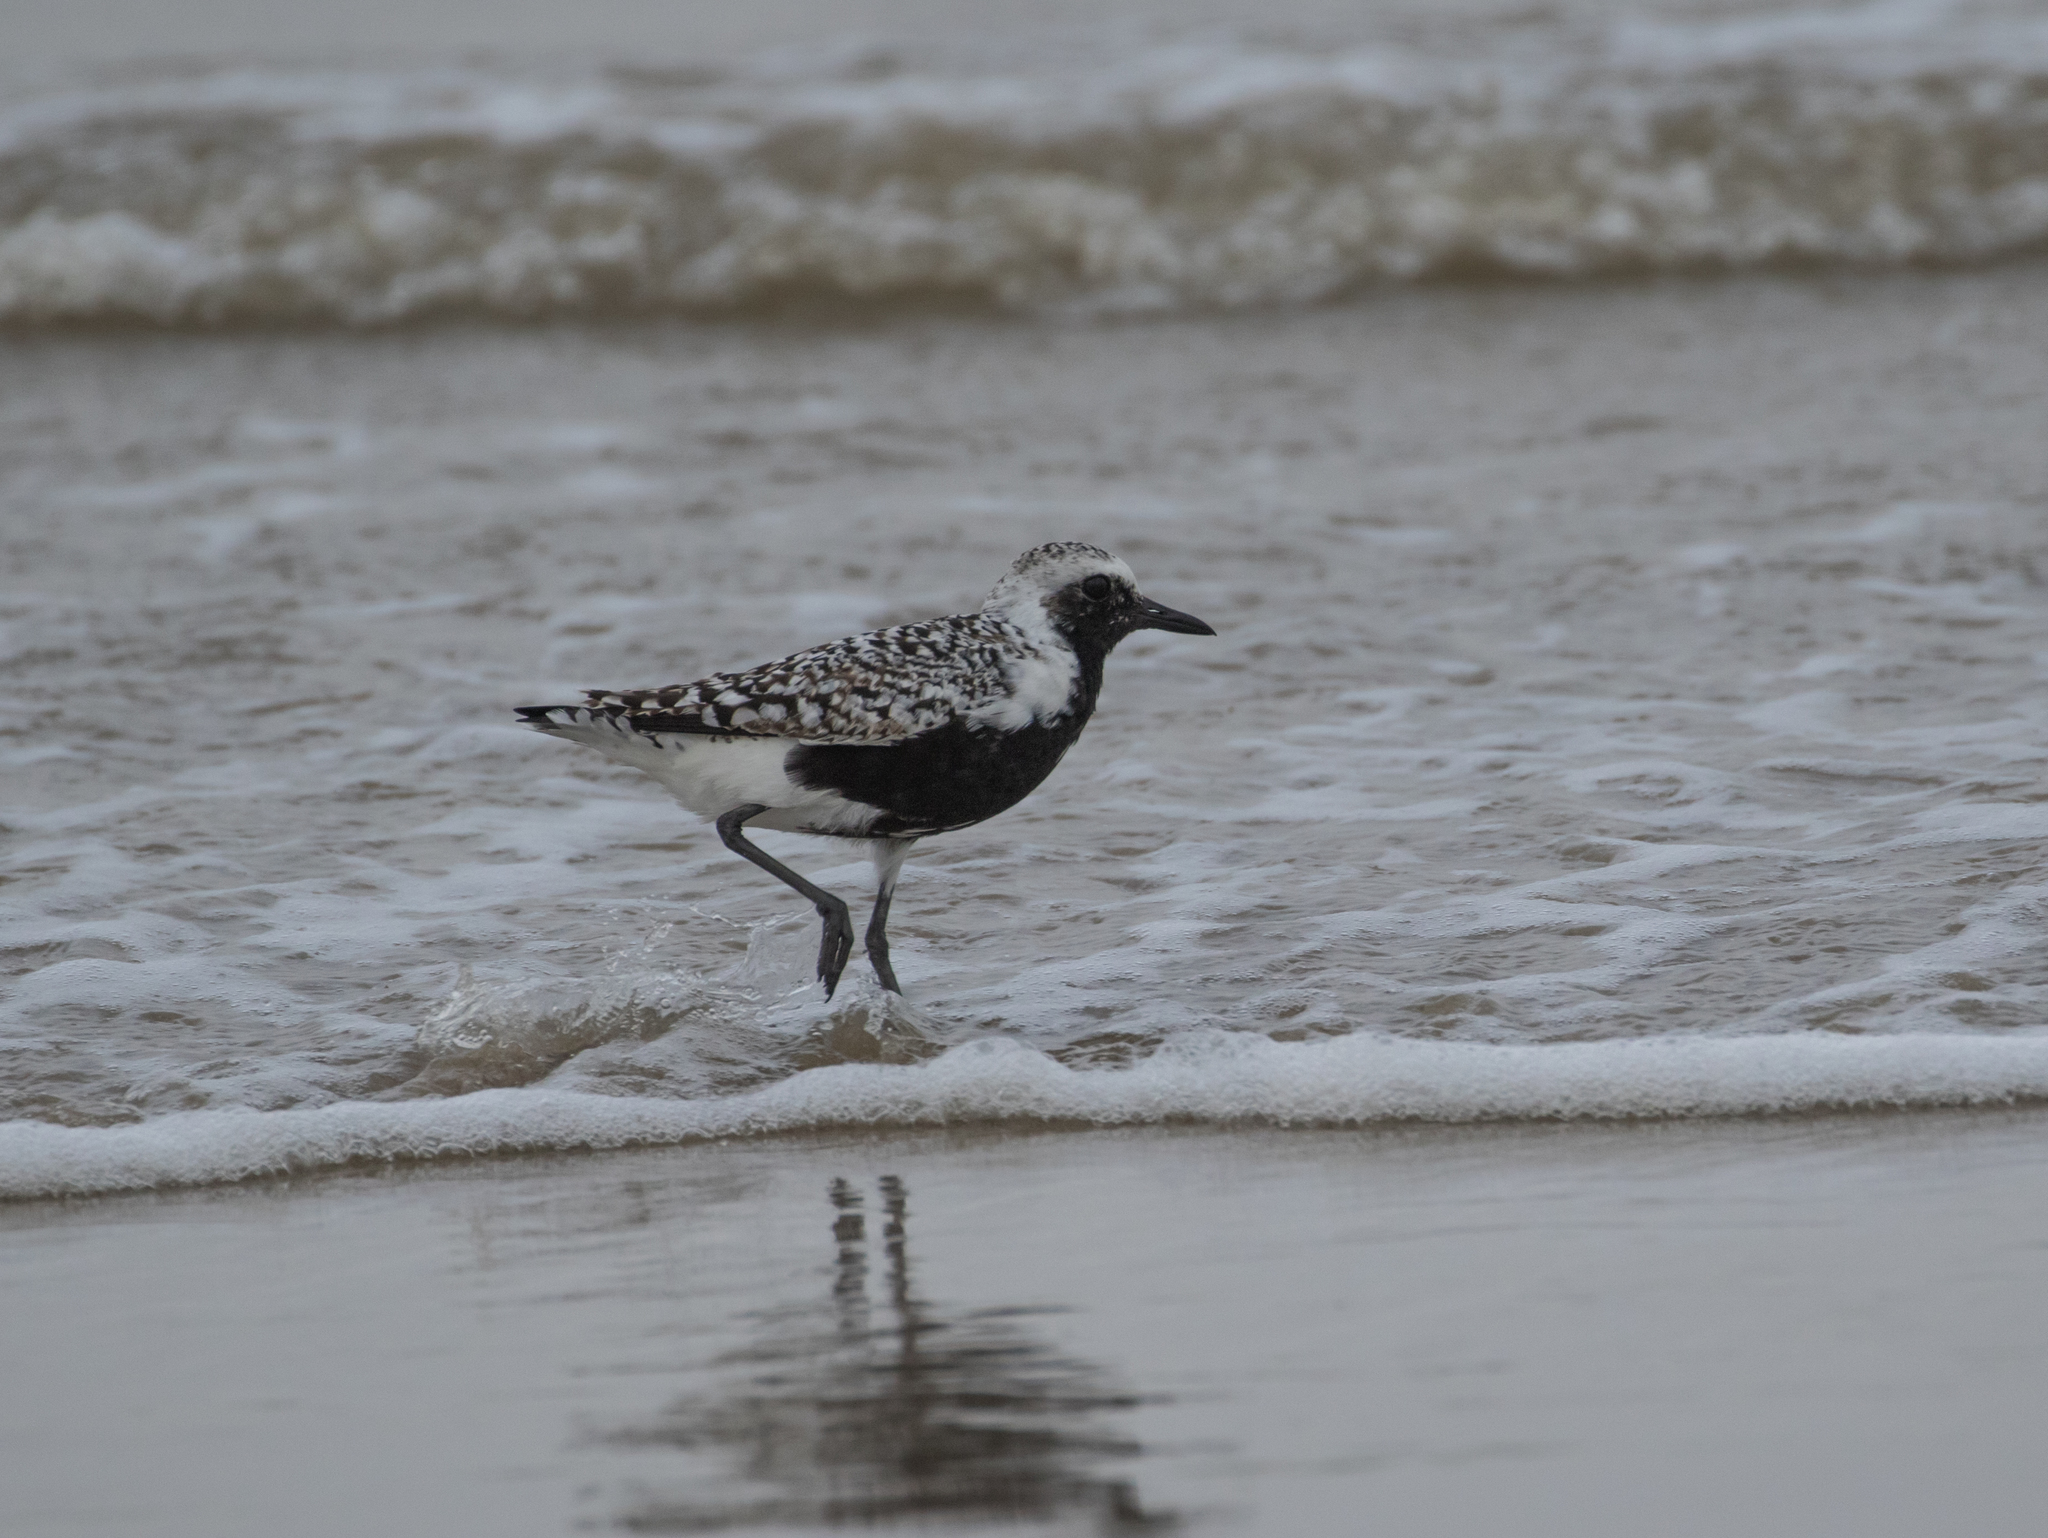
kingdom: Animalia
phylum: Chordata
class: Aves
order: Charadriiformes
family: Charadriidae
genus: Pluvialis
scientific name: Pluvialis squatarola
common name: Grey plover
